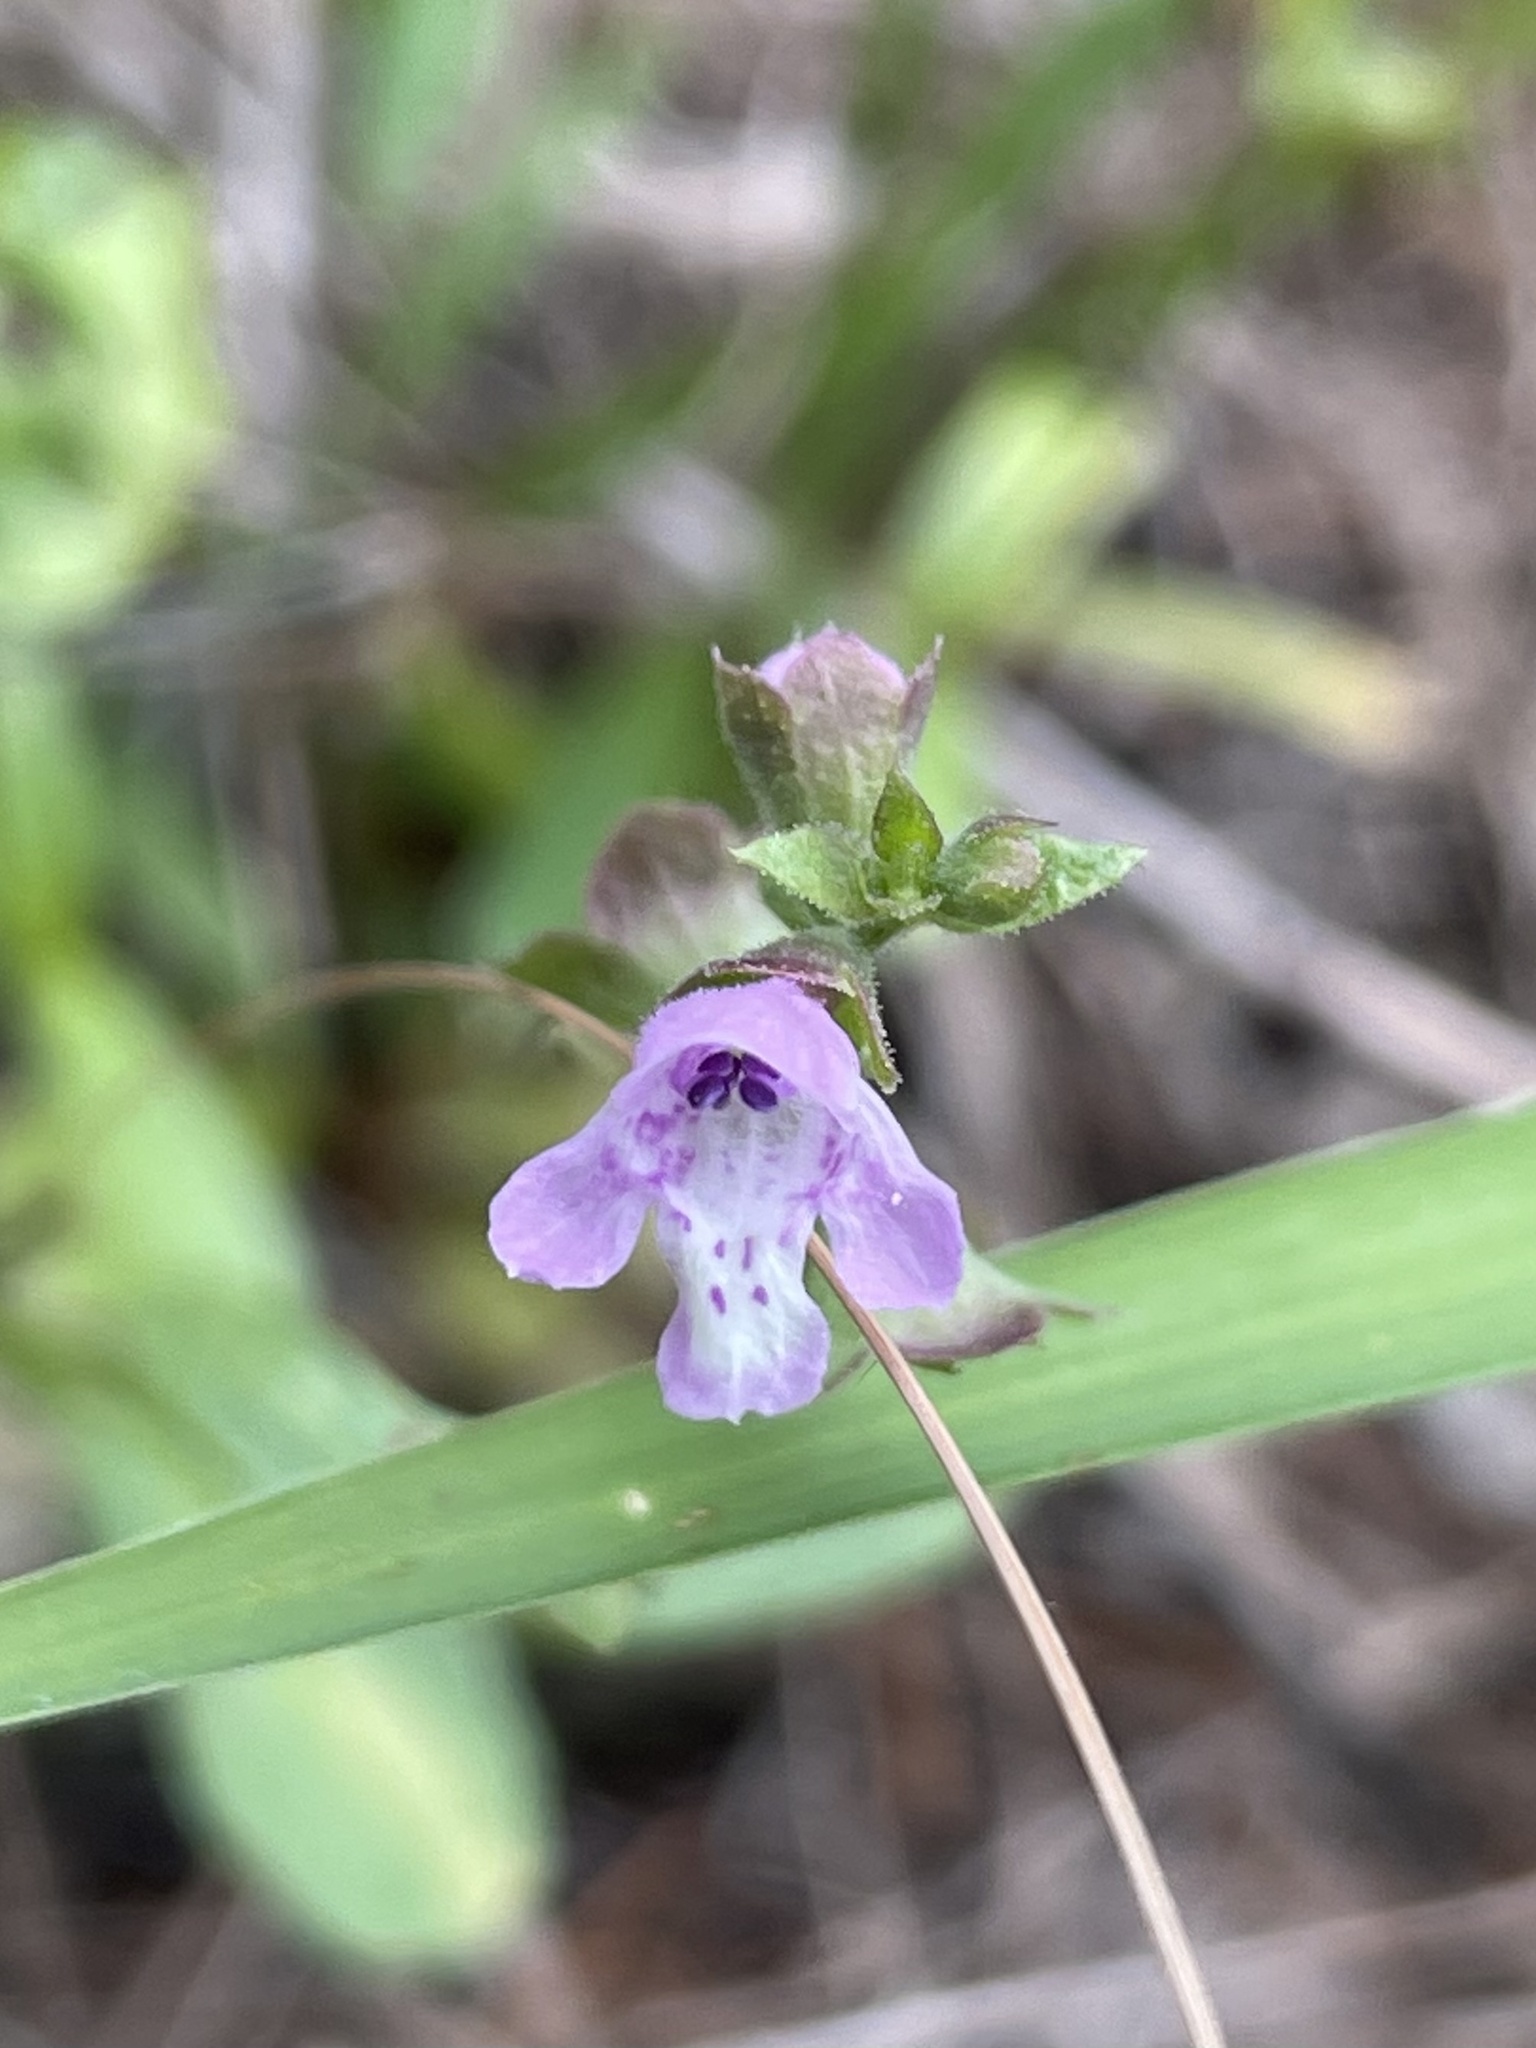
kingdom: Plantae
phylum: Tracheophyta
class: Magnoliopsida
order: Lamiales
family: Lamiaceae
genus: Warnockia
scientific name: Warnockia scutellarioides
